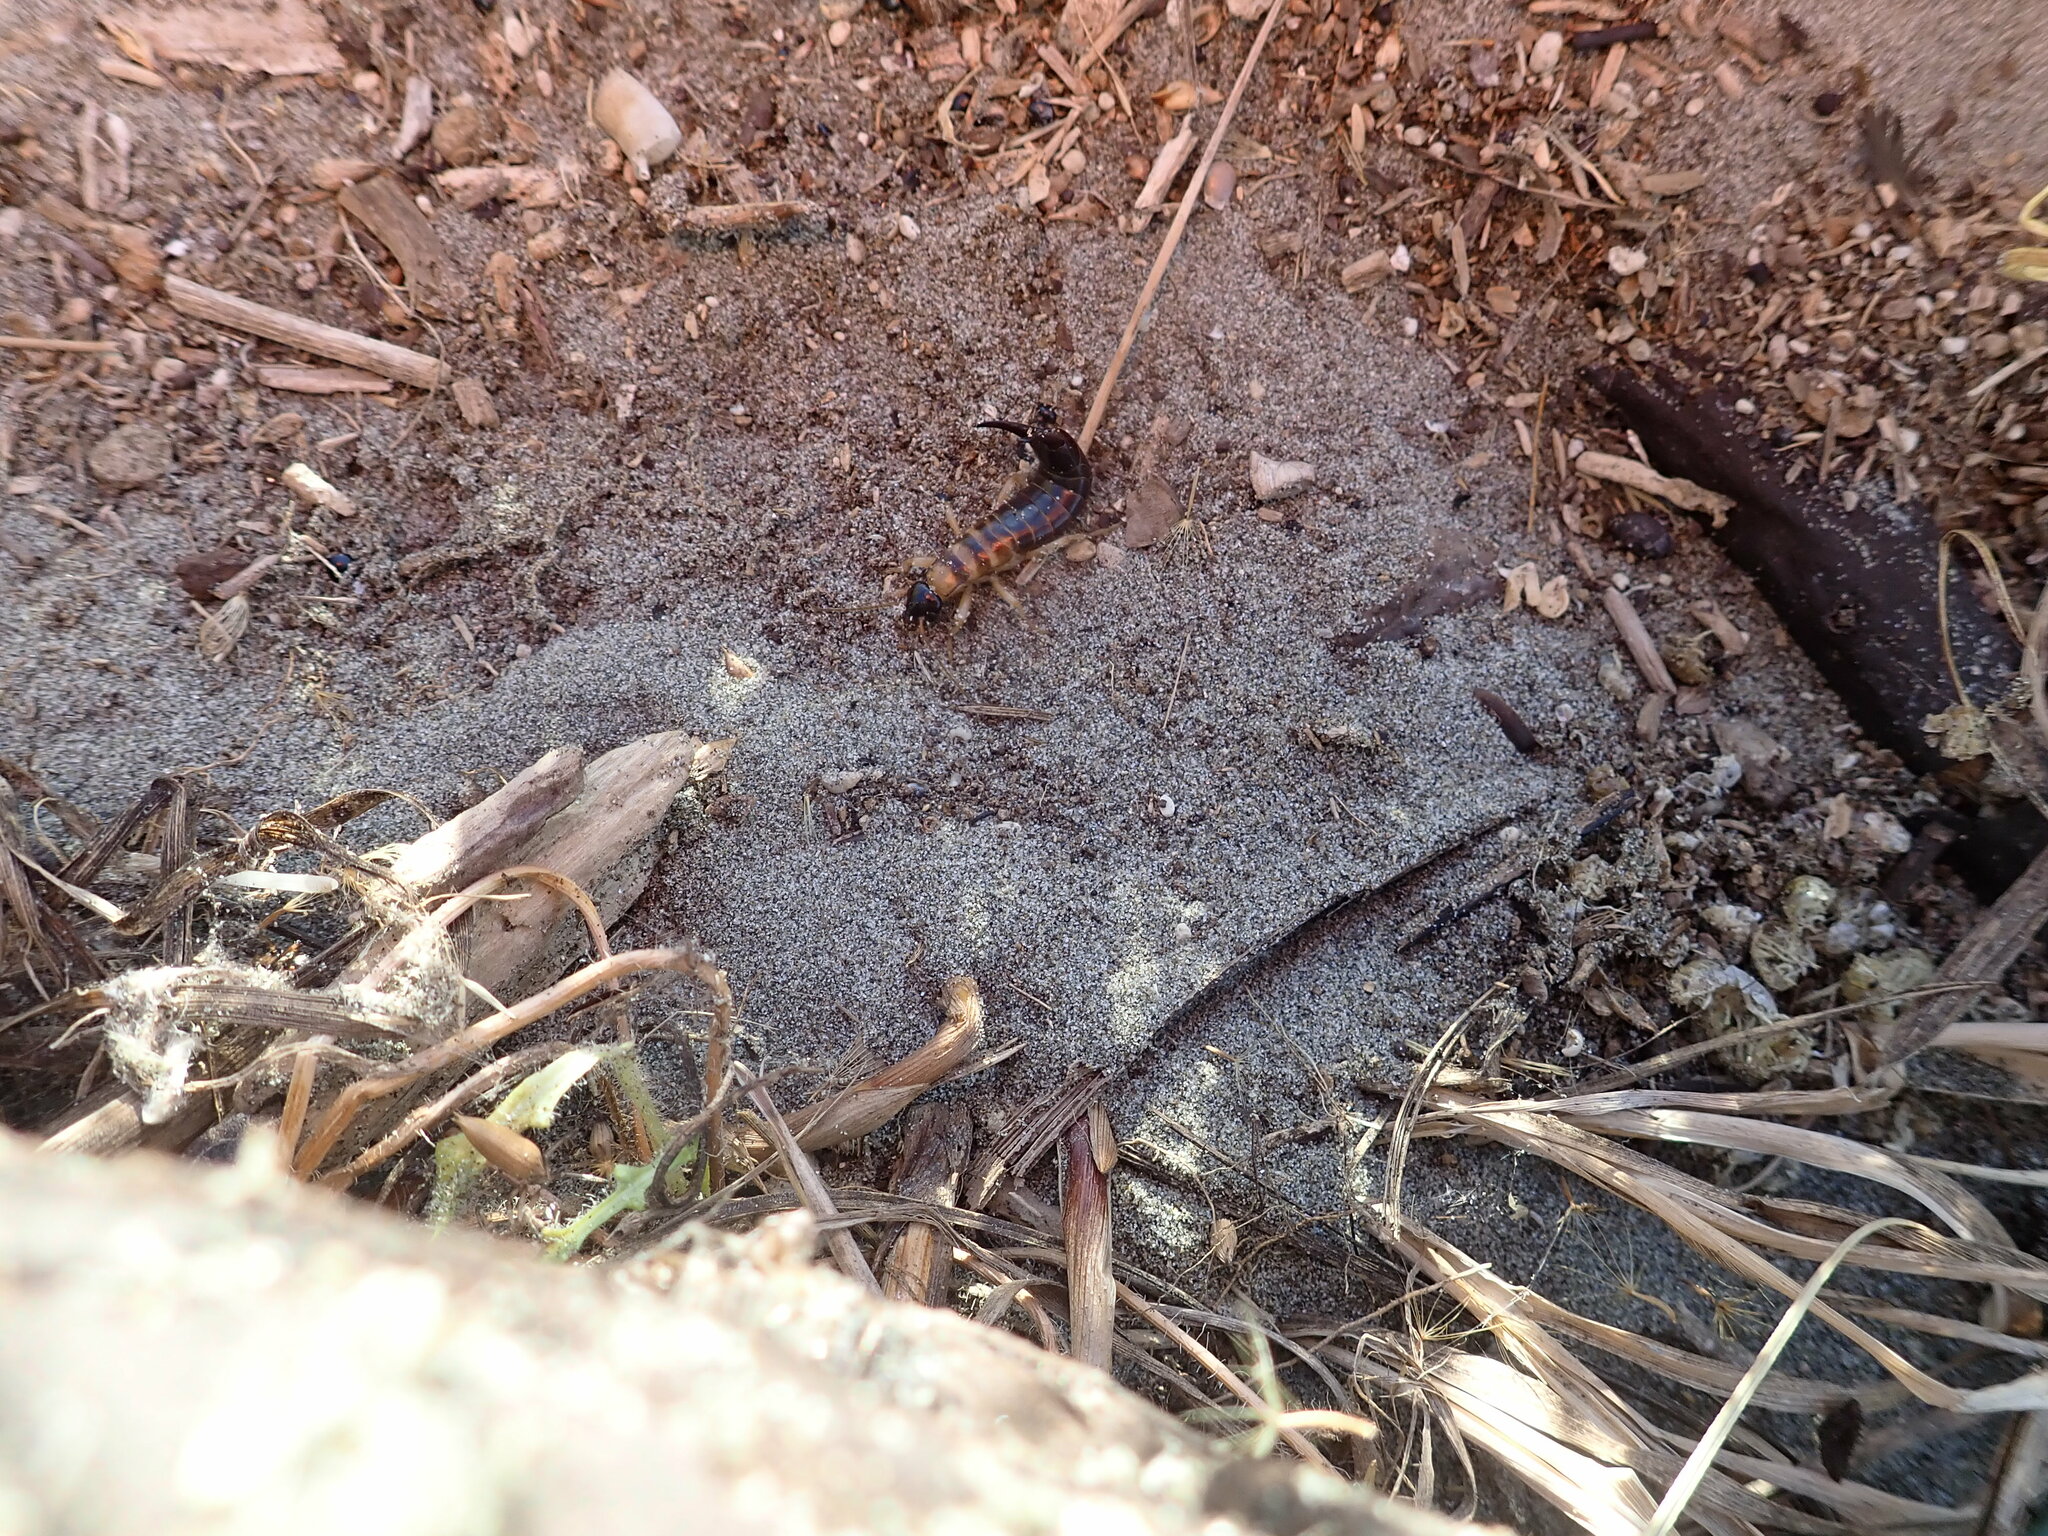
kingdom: Animalia
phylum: Arthropoda
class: Insecta
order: Dermaptera
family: Anisolabididae
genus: Anisolabis
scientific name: Anisolabis littorea
